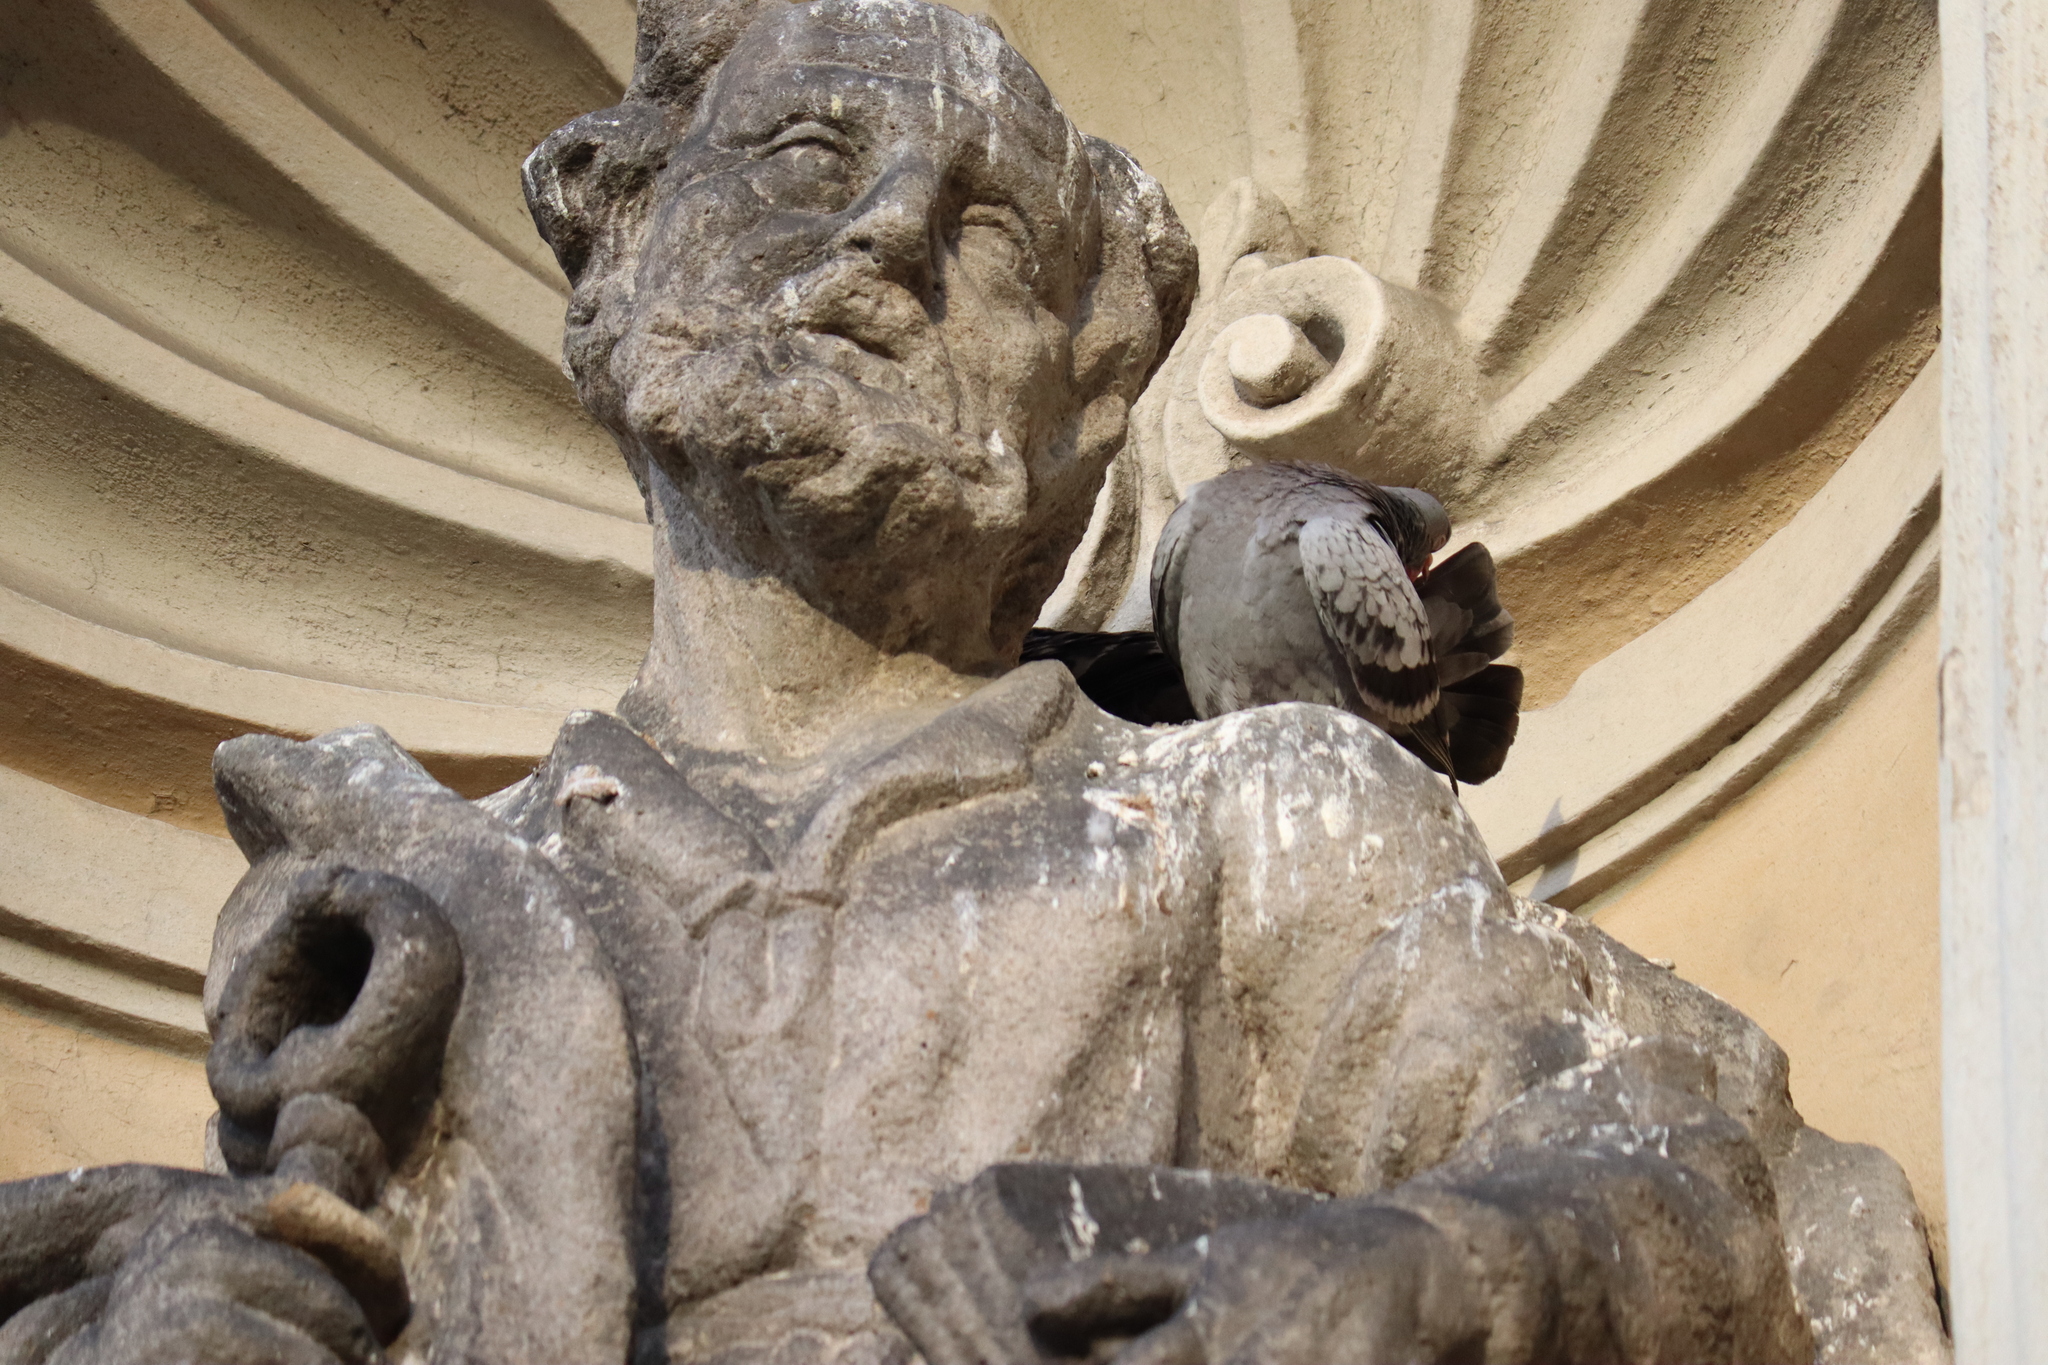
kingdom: Animalia
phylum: Chordata
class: Aves
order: Columbiformes
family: Columbidae
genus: Columba
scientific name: Columba livia
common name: Rock pigeon
